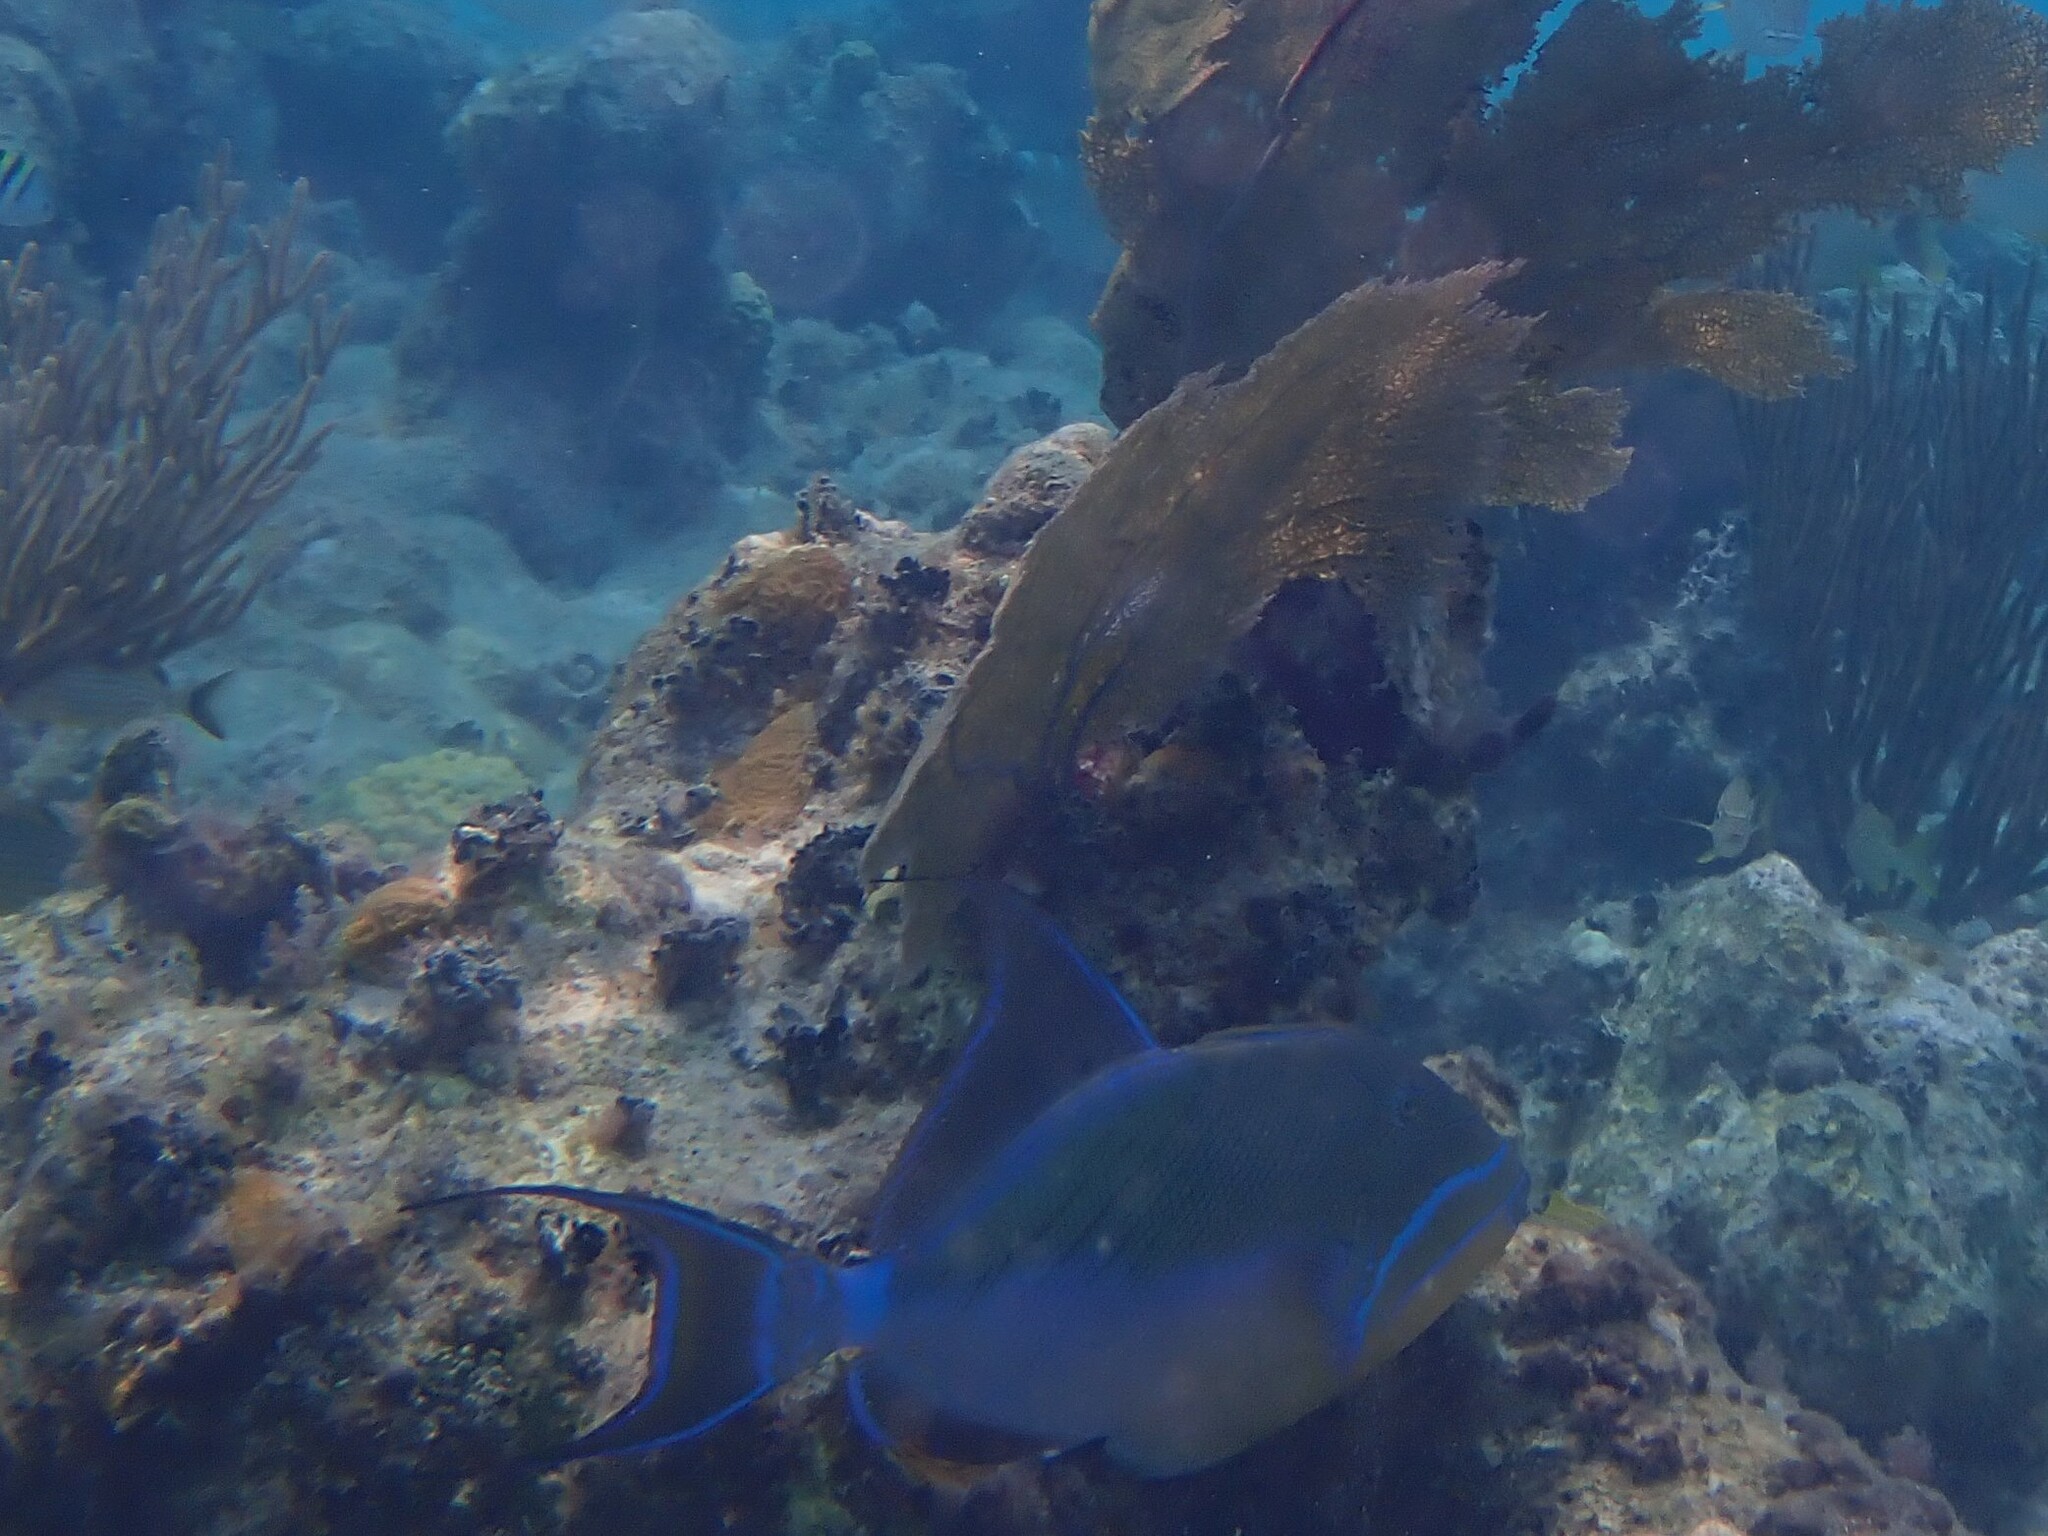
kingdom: Animalia
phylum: Chordata
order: Tetraodontiformes
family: Balistidae
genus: Balistes
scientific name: Balistes vetula
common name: Queen triggerfish
